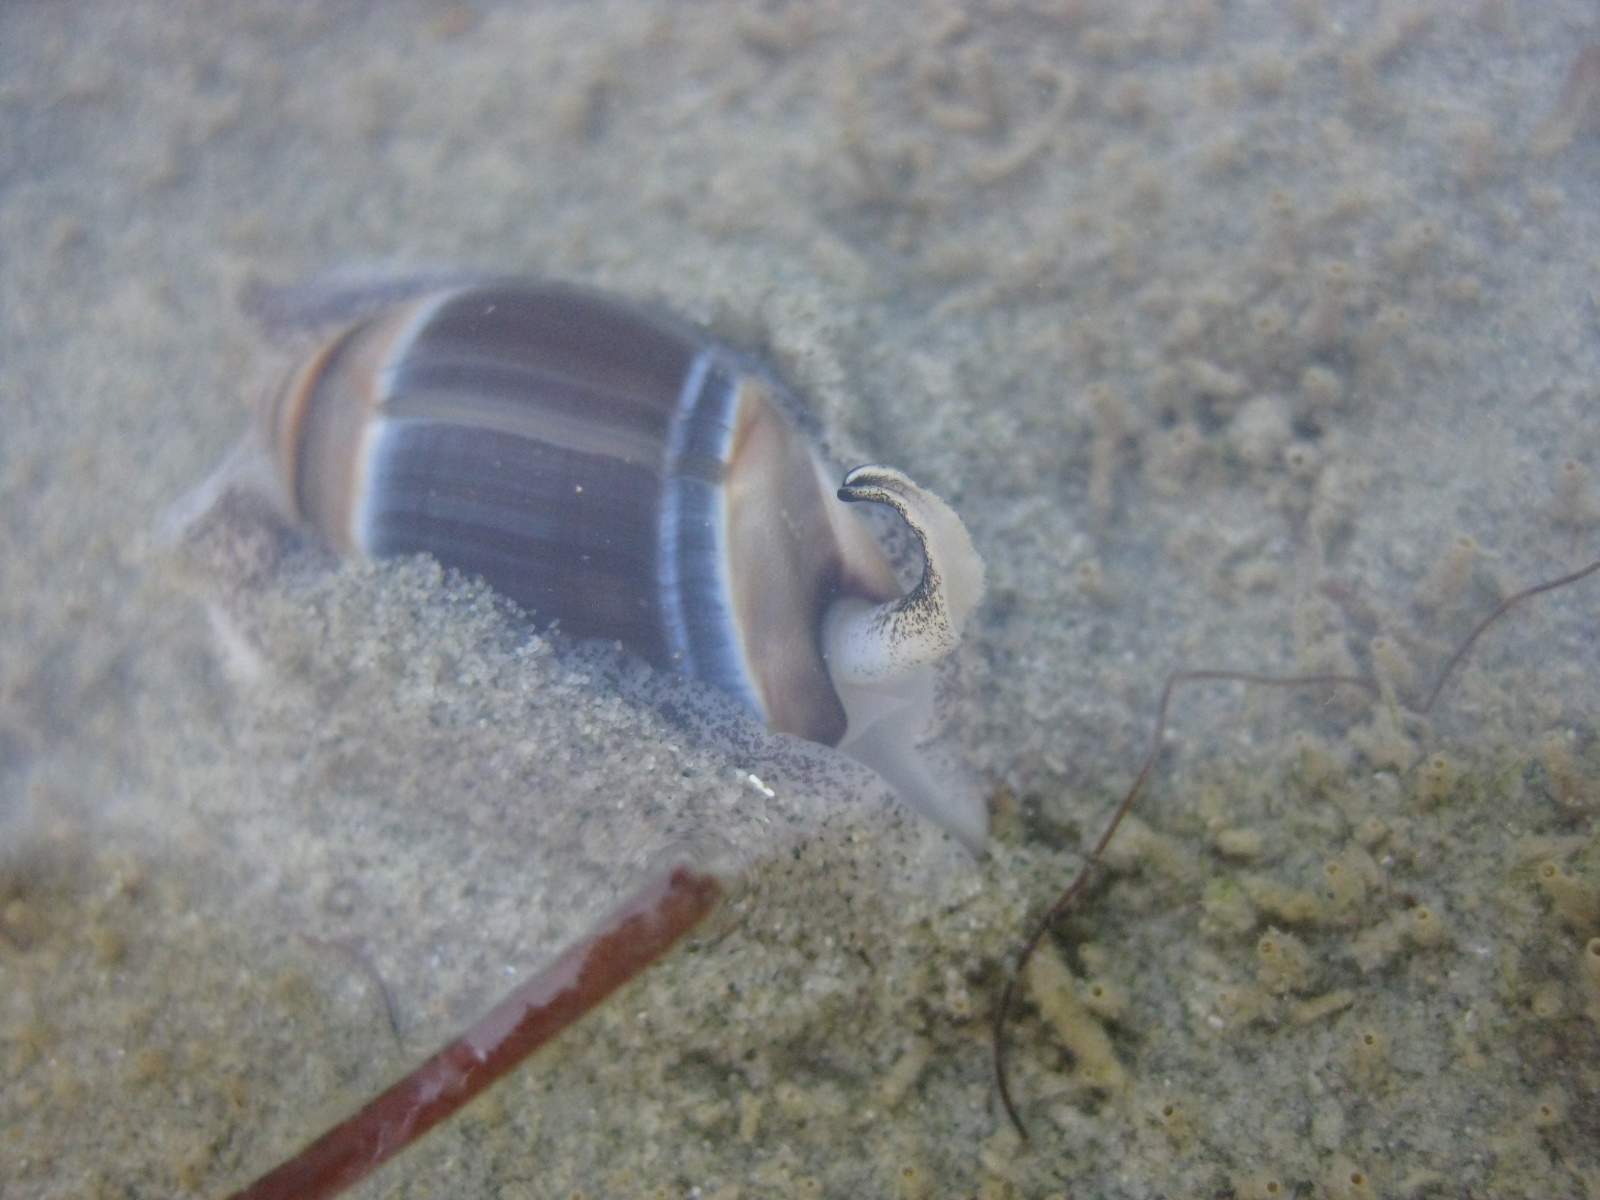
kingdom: Animalia
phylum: Mollusca
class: Gastropoda
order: Neogastropoda
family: Ancillariidae
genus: Amalda
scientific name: Amalda australis
